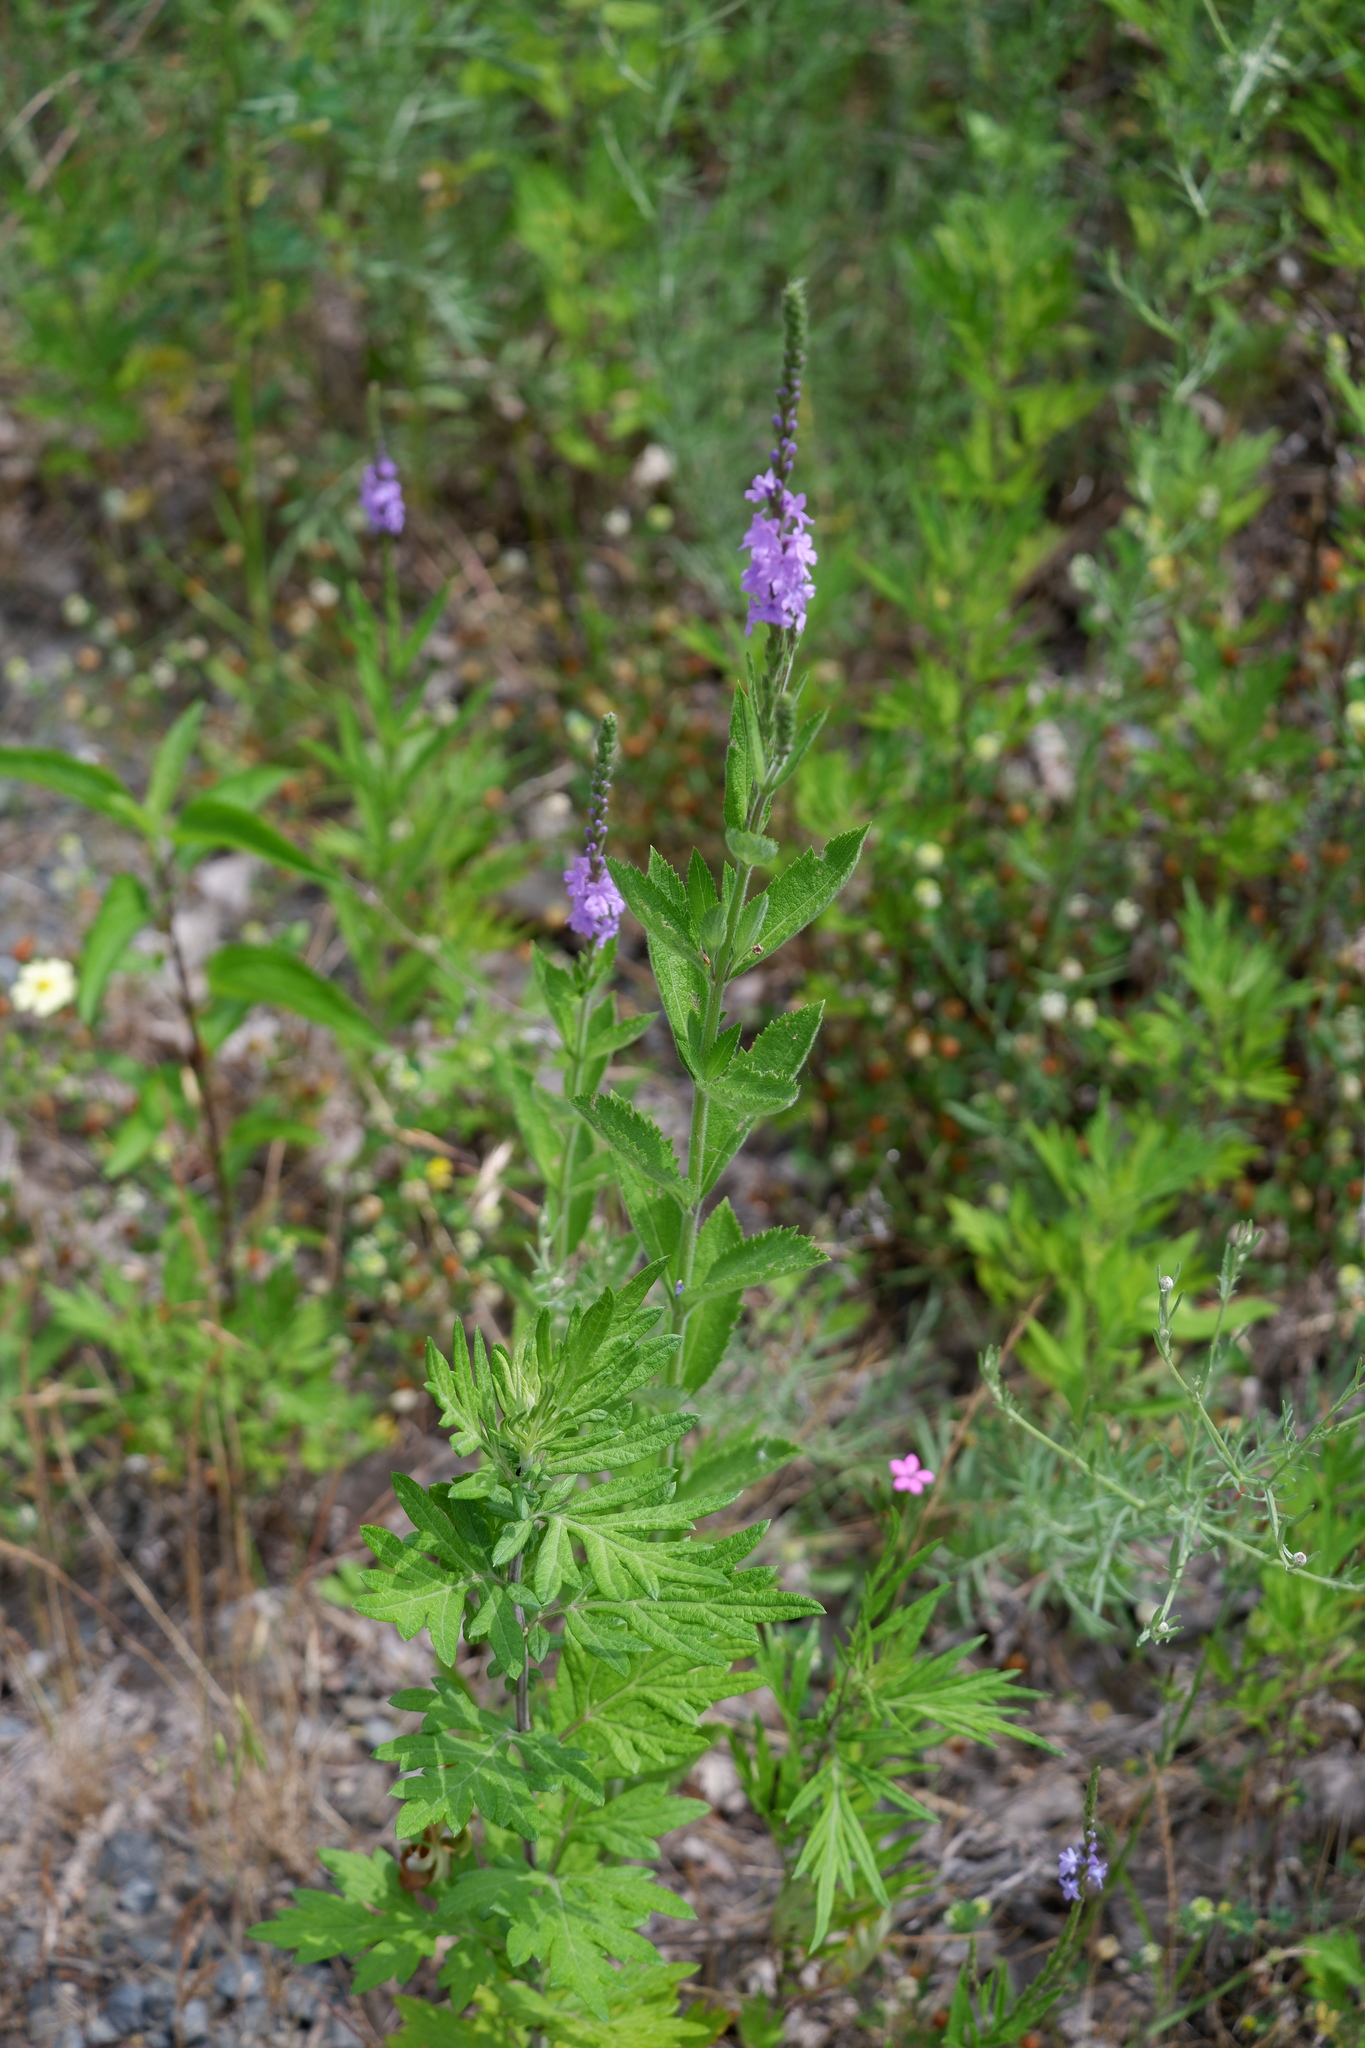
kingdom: Plantae
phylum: Tracheophyta
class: Magnoliopsida
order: Lamiales
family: Verbenaceae
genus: Verbena
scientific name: Verbena stricta
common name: Hoary vervain
